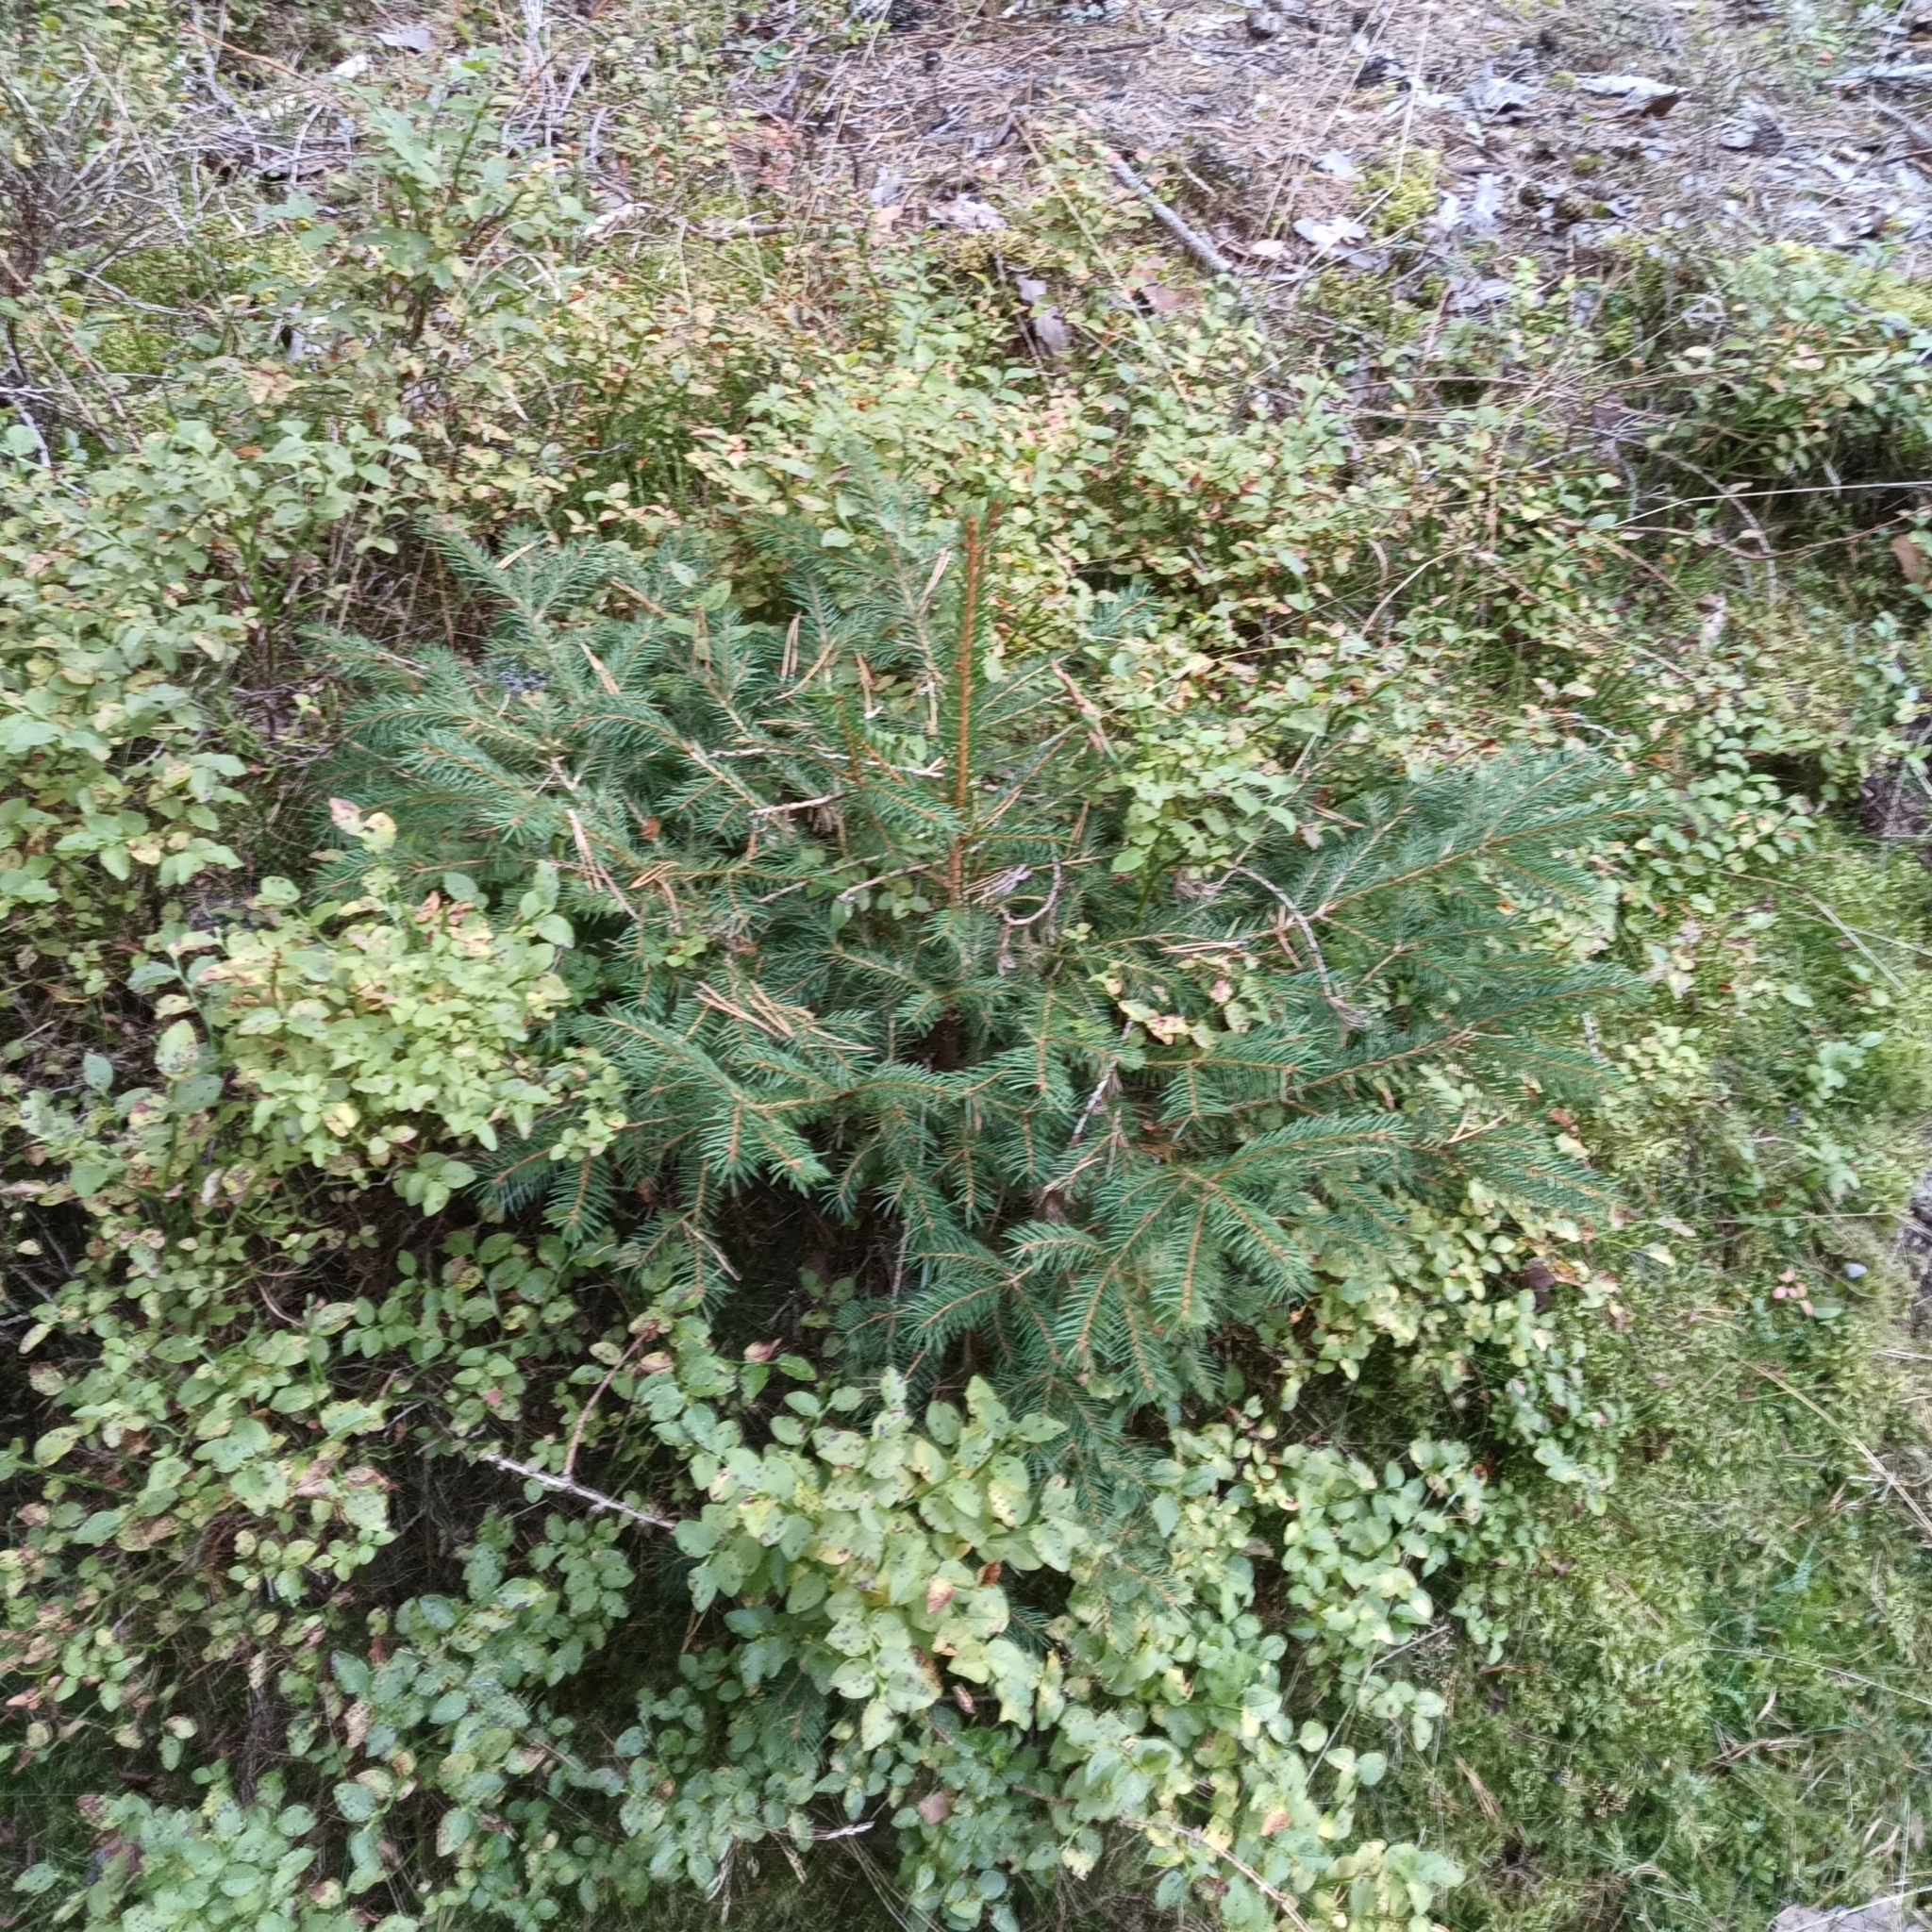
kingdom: Plantae
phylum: Tracheophyta
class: Pinopsida
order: Pinales
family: Pinaceae
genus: Picea
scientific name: Picea abies
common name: Norway spruce
